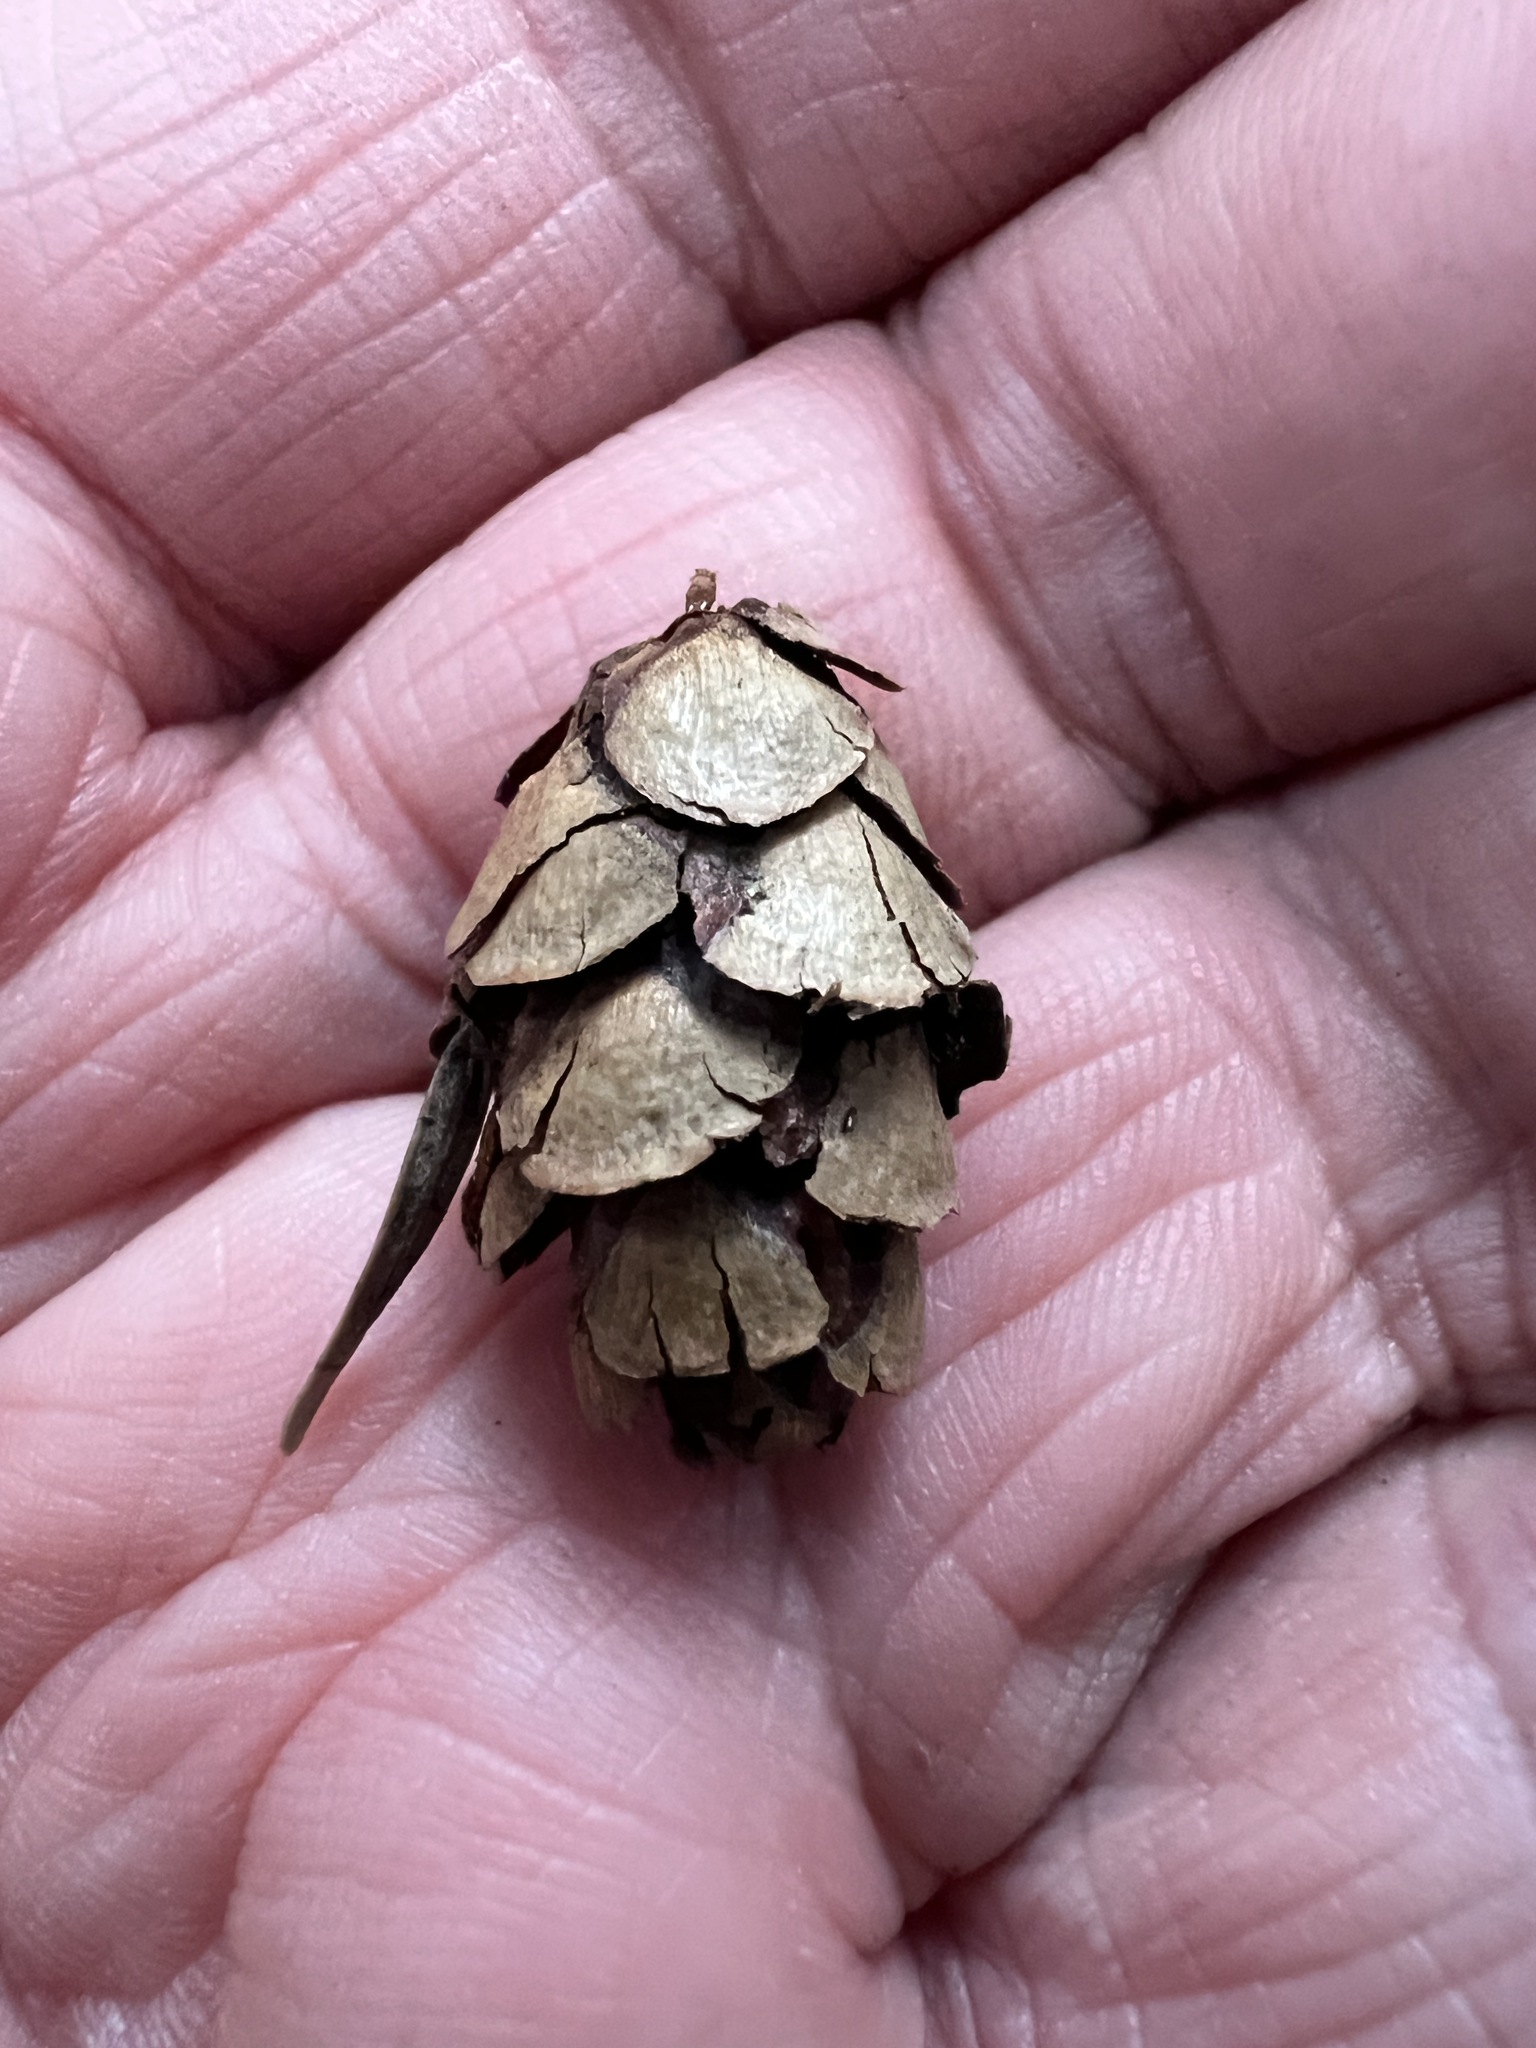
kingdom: Plantae
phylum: Tracheophyta
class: Pinopsida
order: Pinales
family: Pinaceae
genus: Tsuga
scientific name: Tsuga heterophylla
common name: Western hemlock
